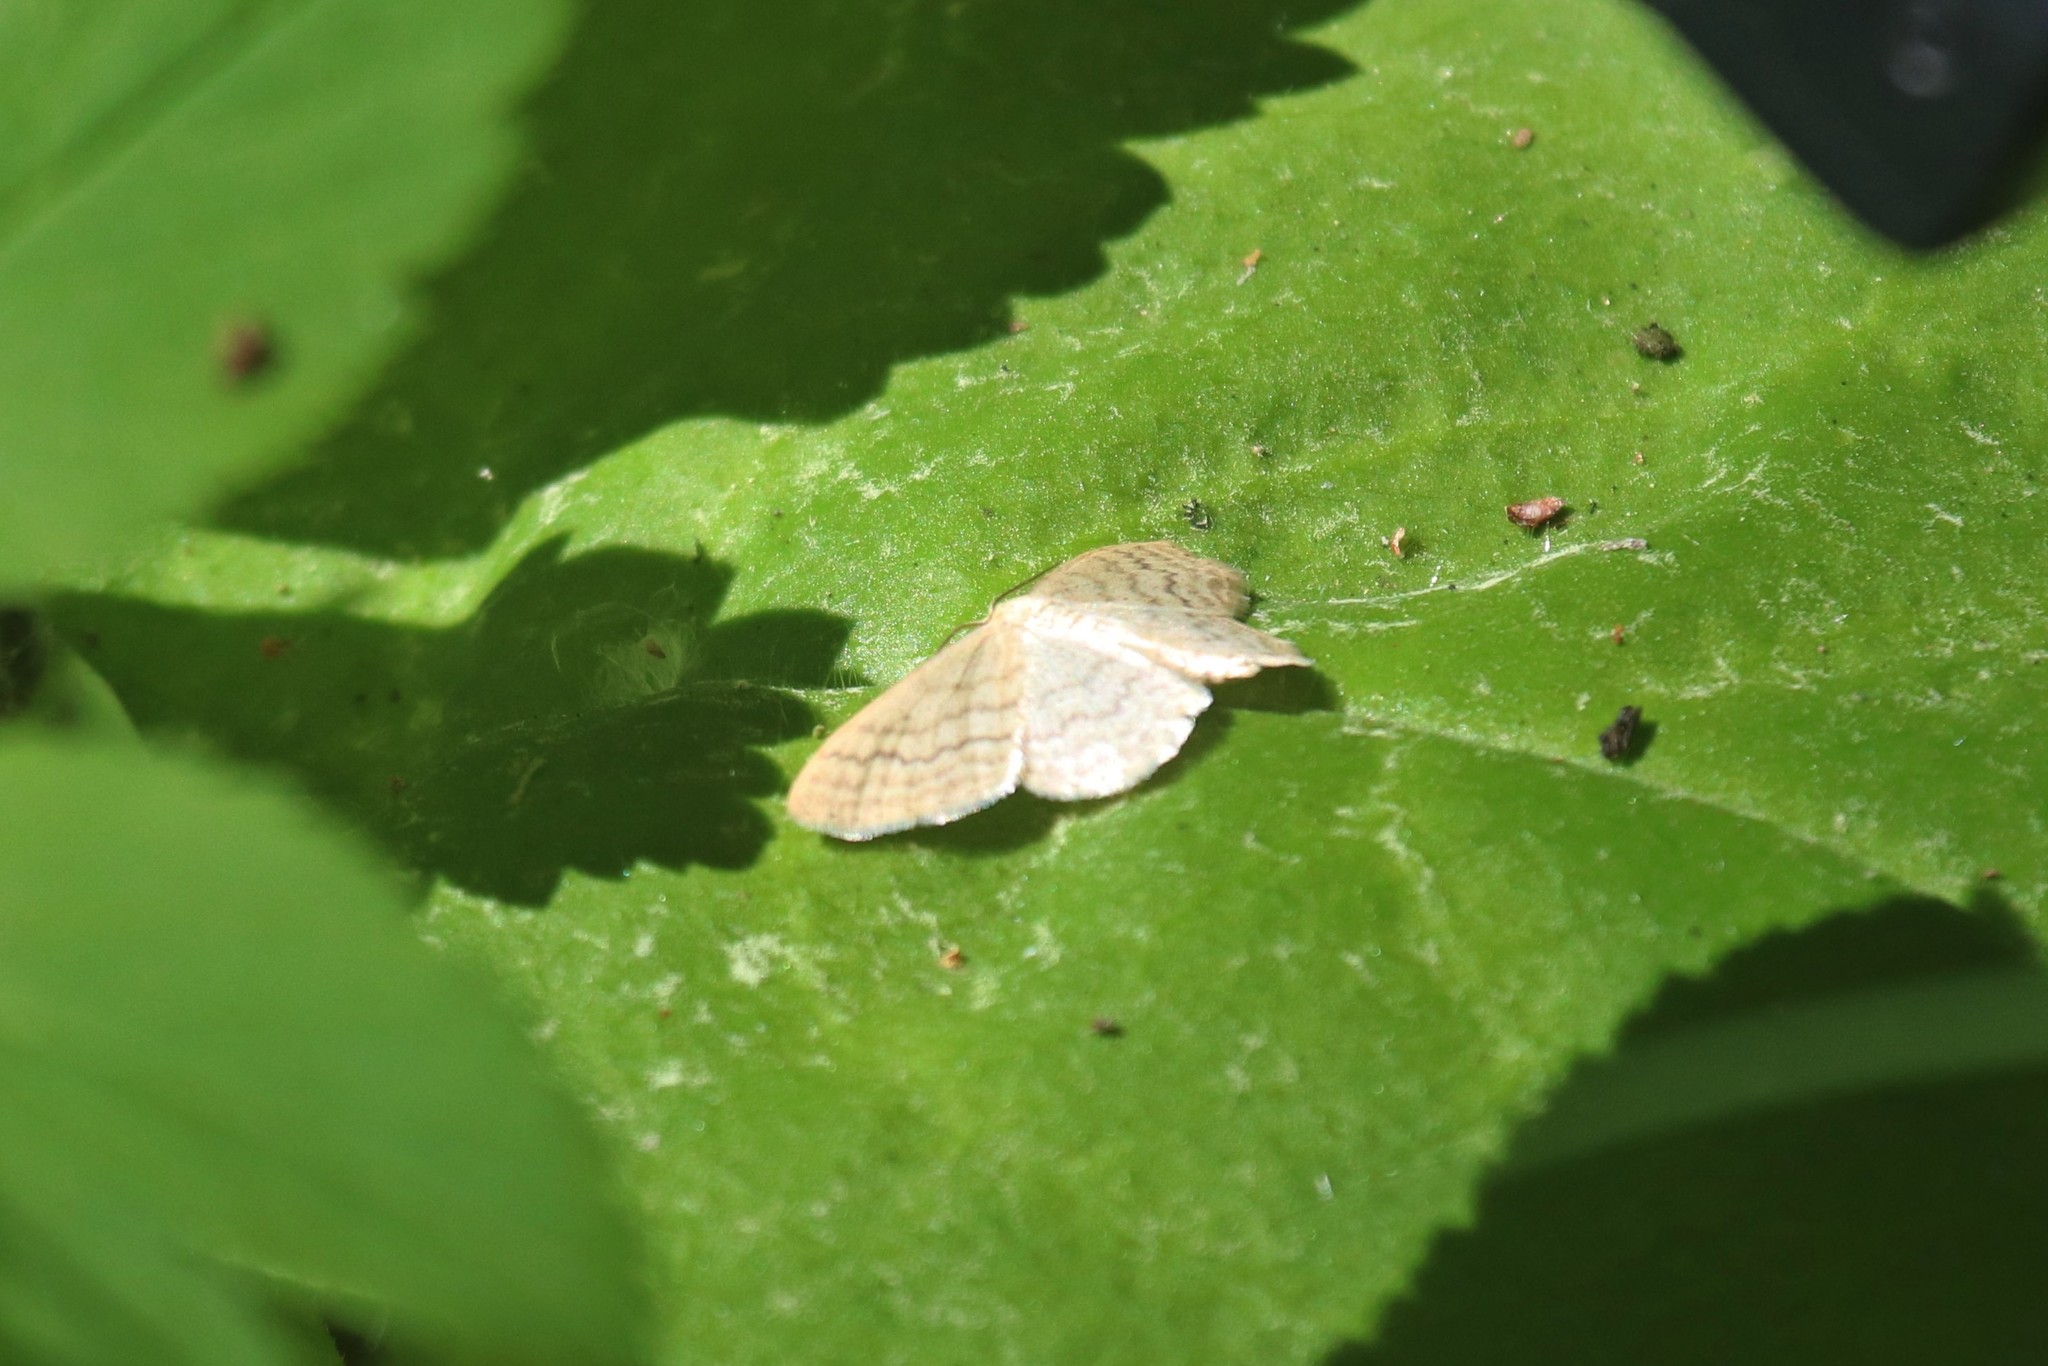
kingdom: Animalia
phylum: Arthropoda
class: Insecta
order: Lepidoptera
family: Geometridae
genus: Scopula
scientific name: Scopula floslactata
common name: Cream wave
